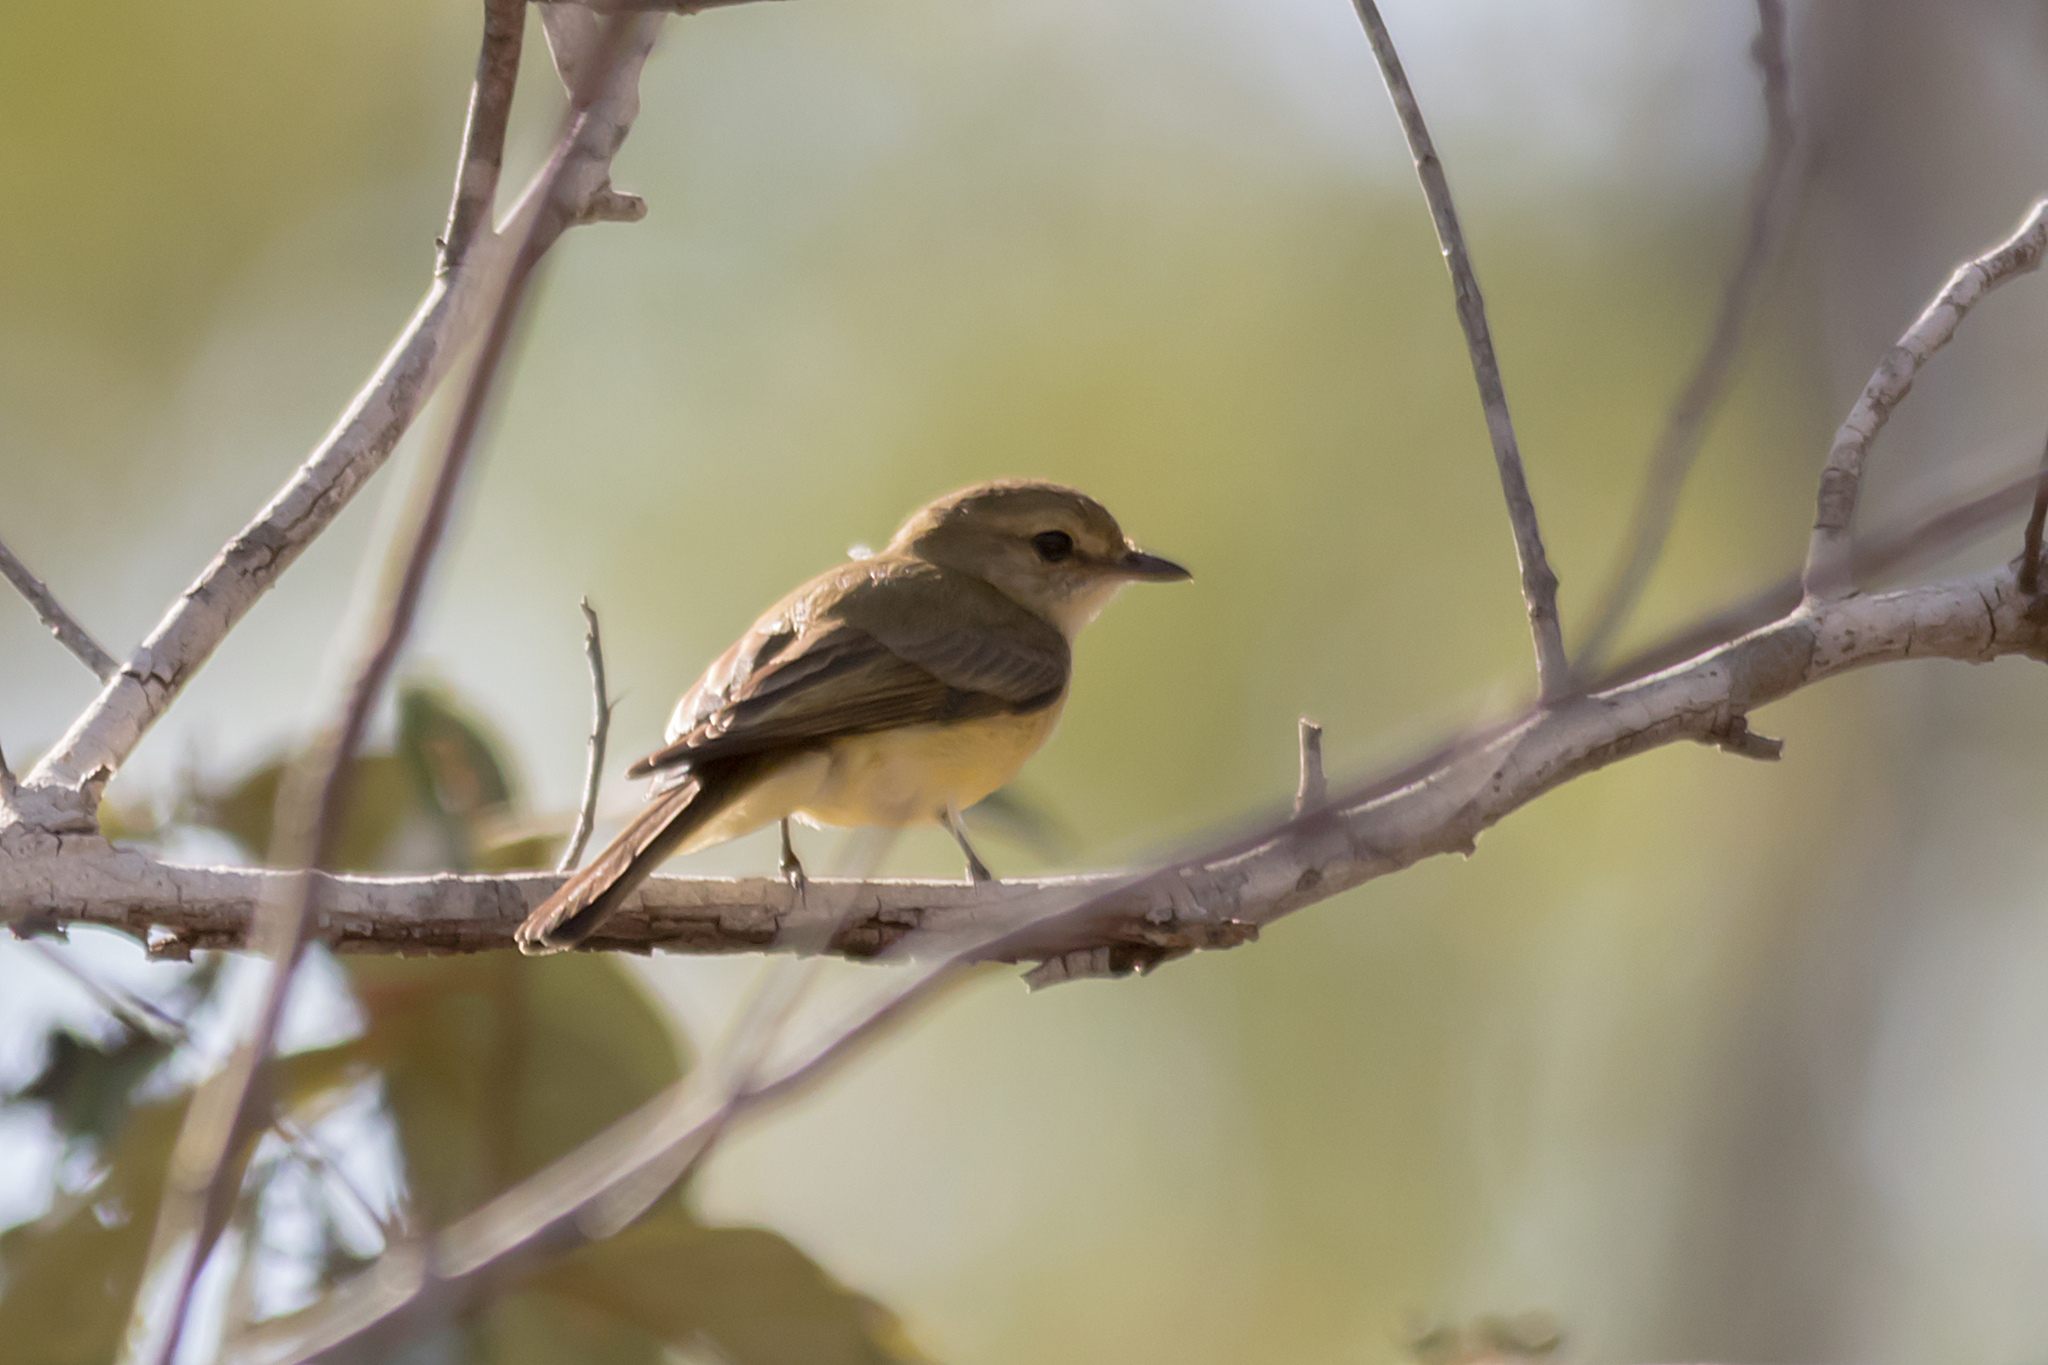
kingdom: Animalia
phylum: Chordata
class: Aves
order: Passeriformes
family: Petroicidae
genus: Microeca
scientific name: Microeca flavigaster
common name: Lemon-bellied flyrobin
